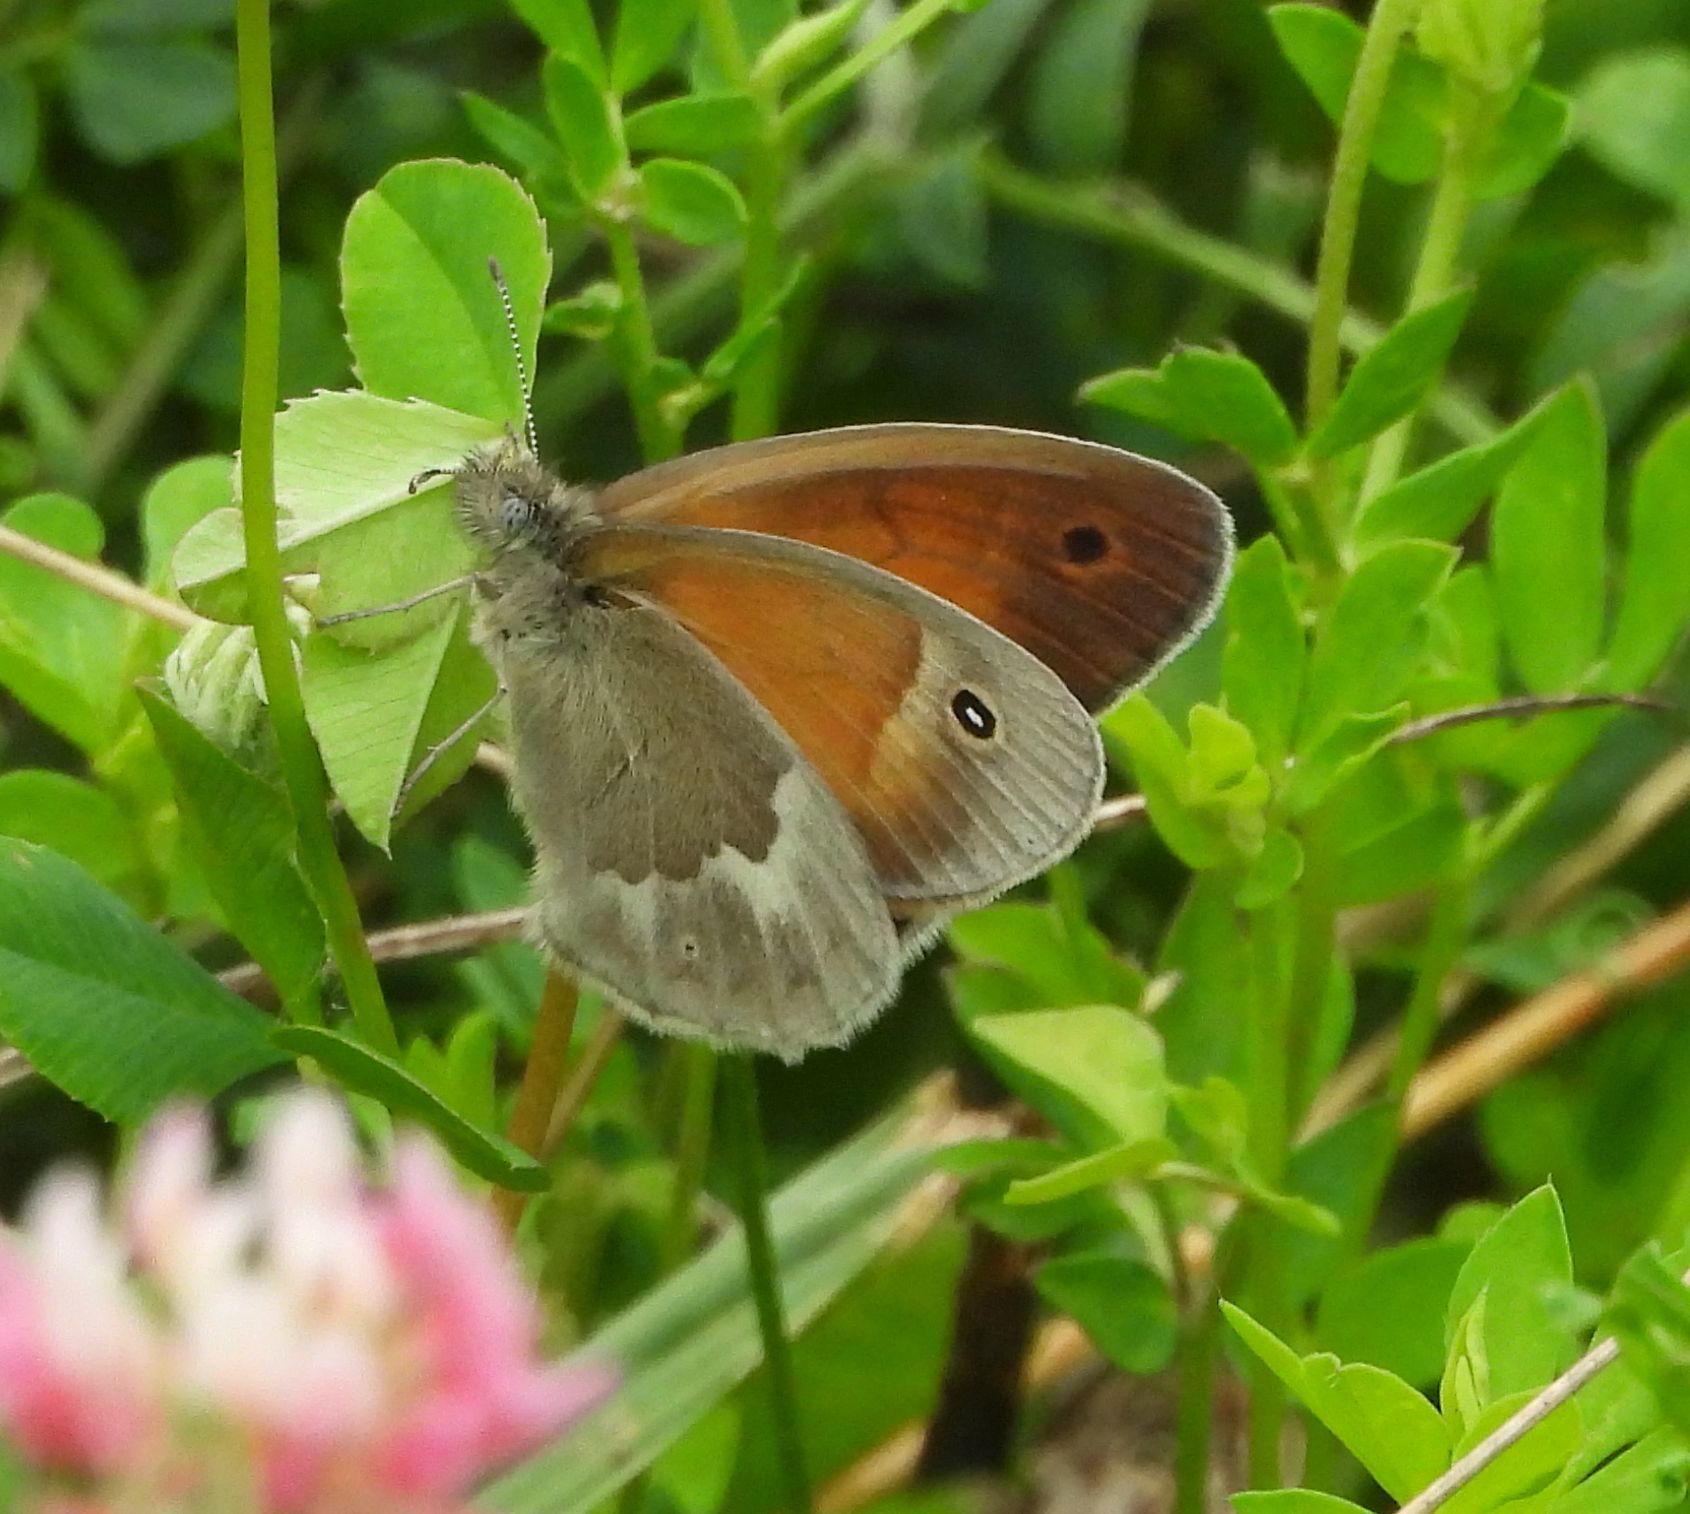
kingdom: Animalia
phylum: Arthropoda
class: Insecta
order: Lepidoptera
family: Nymphalidae
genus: Coenonympha
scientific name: Coenonympha california
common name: Common ringlet
